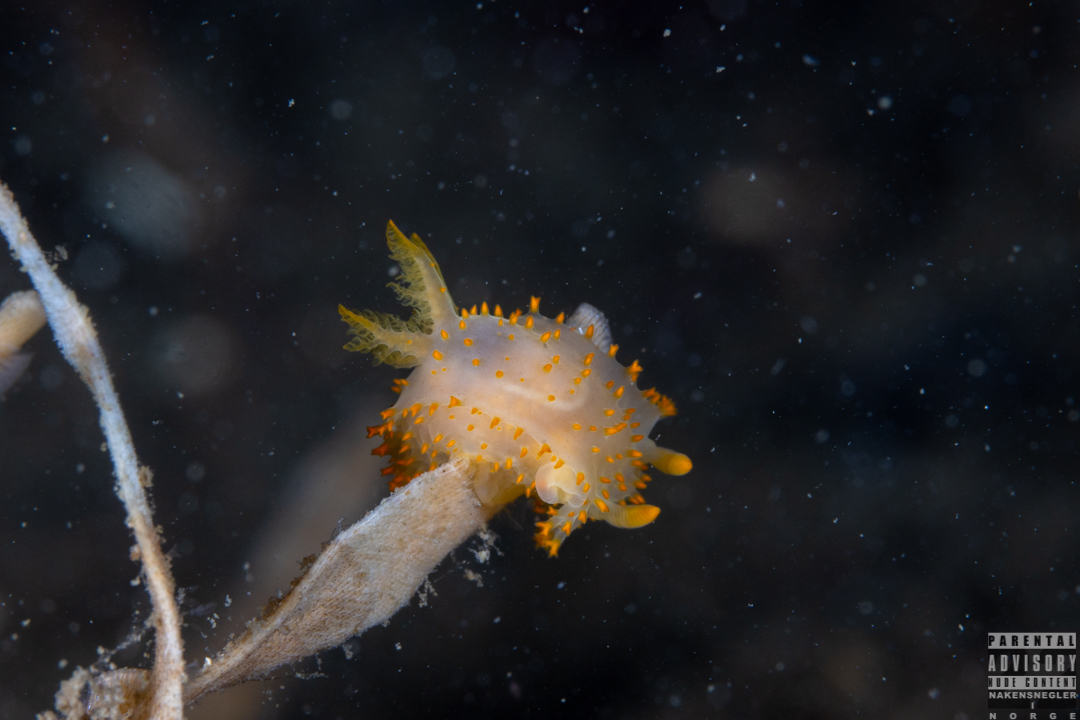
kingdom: Animalia
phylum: Mollusca
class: Gastropoda
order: Nudibranchia
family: Polyceridae
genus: Crimora
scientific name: Crimora papillata
